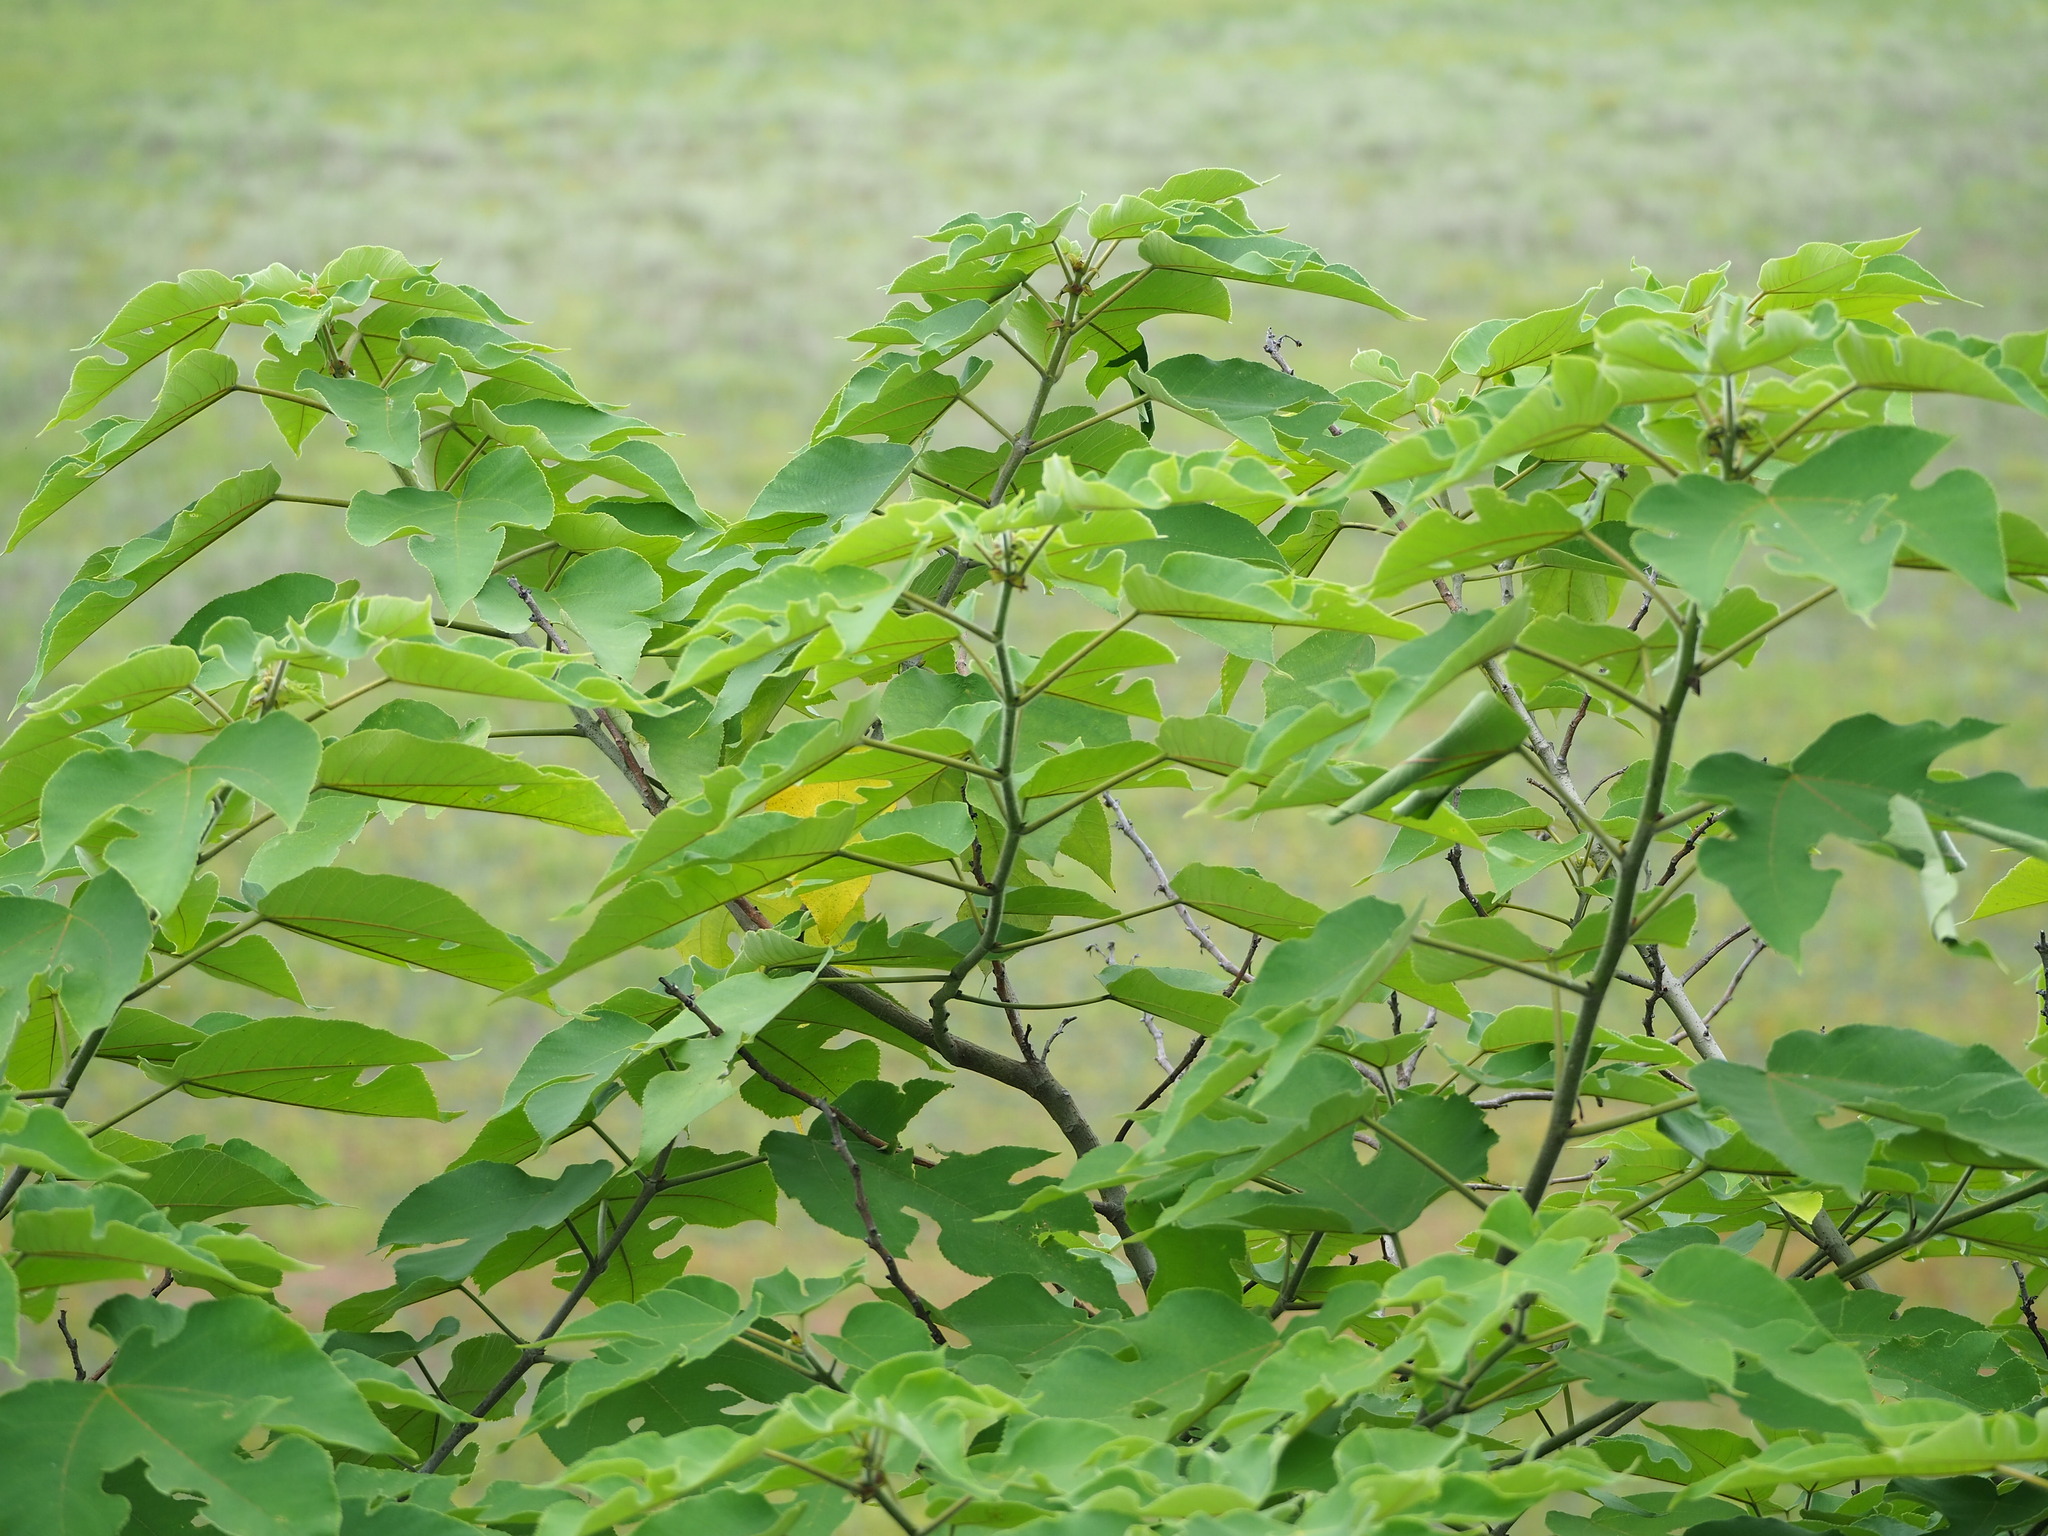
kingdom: Plantae
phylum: Tracheophyta
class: Magnoliopsida
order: Rosales
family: Moraceae
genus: Broussonetia
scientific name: Broussonetia papyrifera
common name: Paper mulberry
